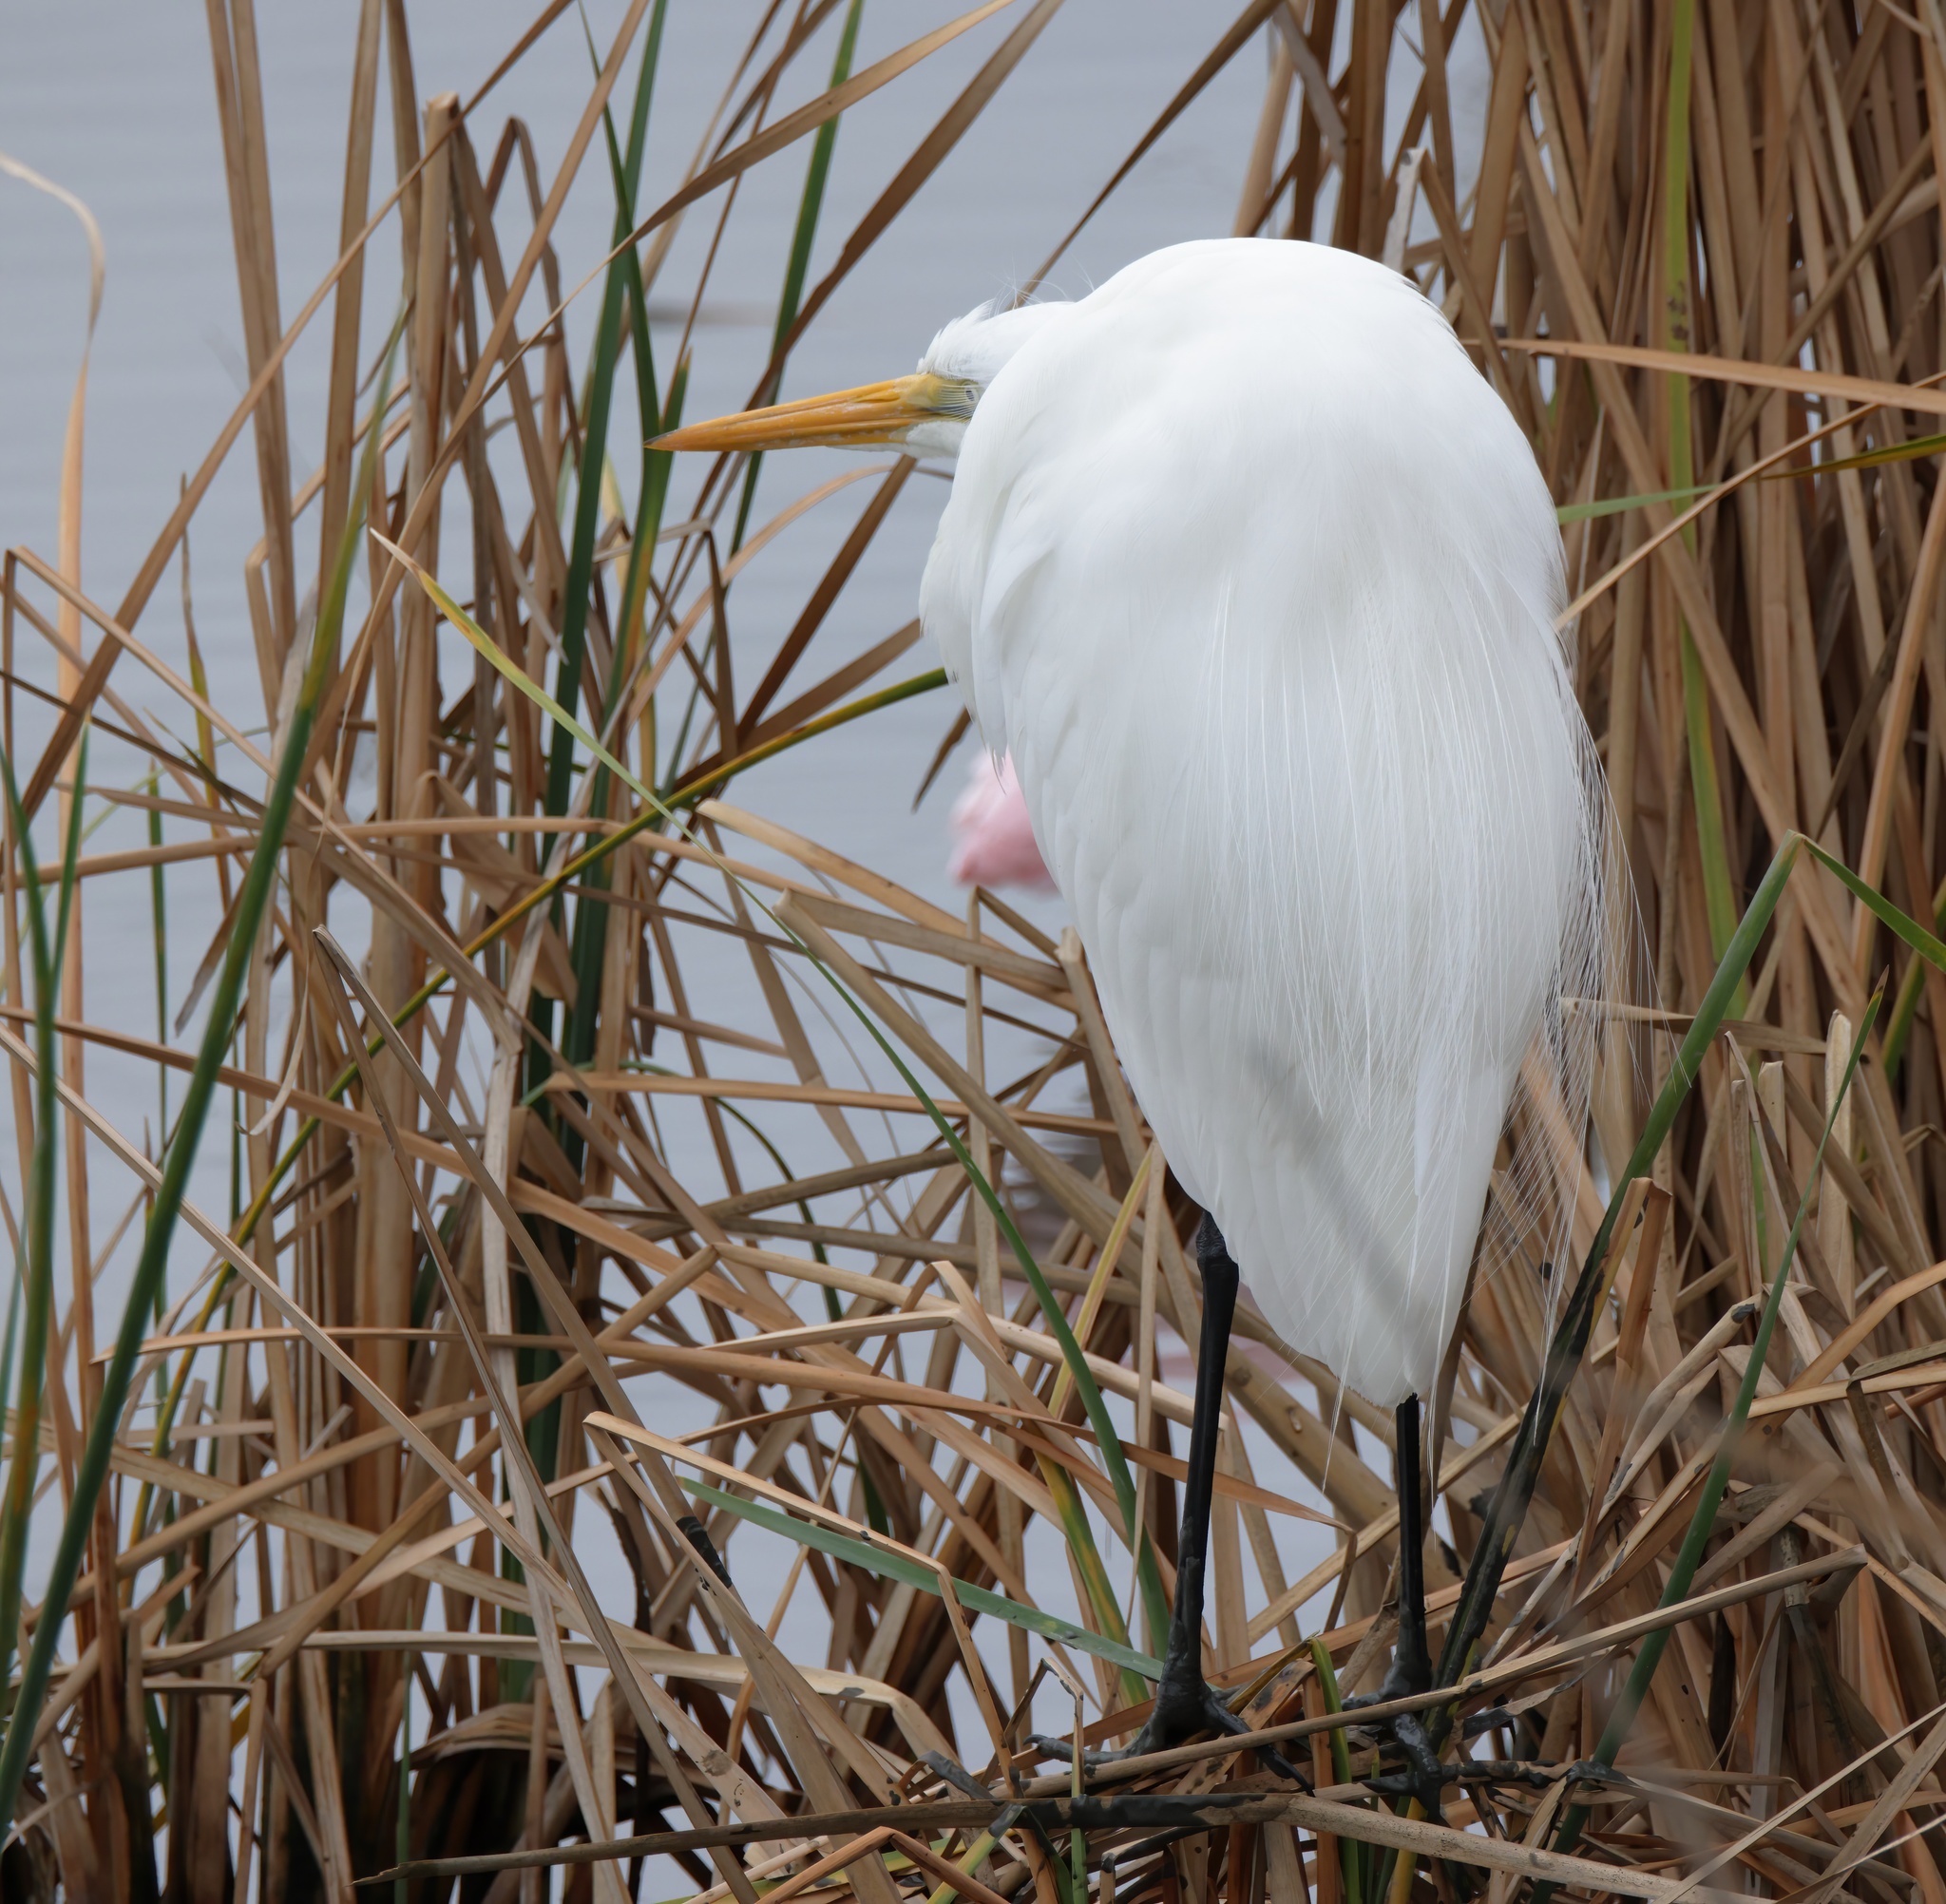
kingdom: Animalia
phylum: Chordata
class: Aves
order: Pelecaniformes
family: Ardeidae
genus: Ardea
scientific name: Ardea alba
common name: Great egret
